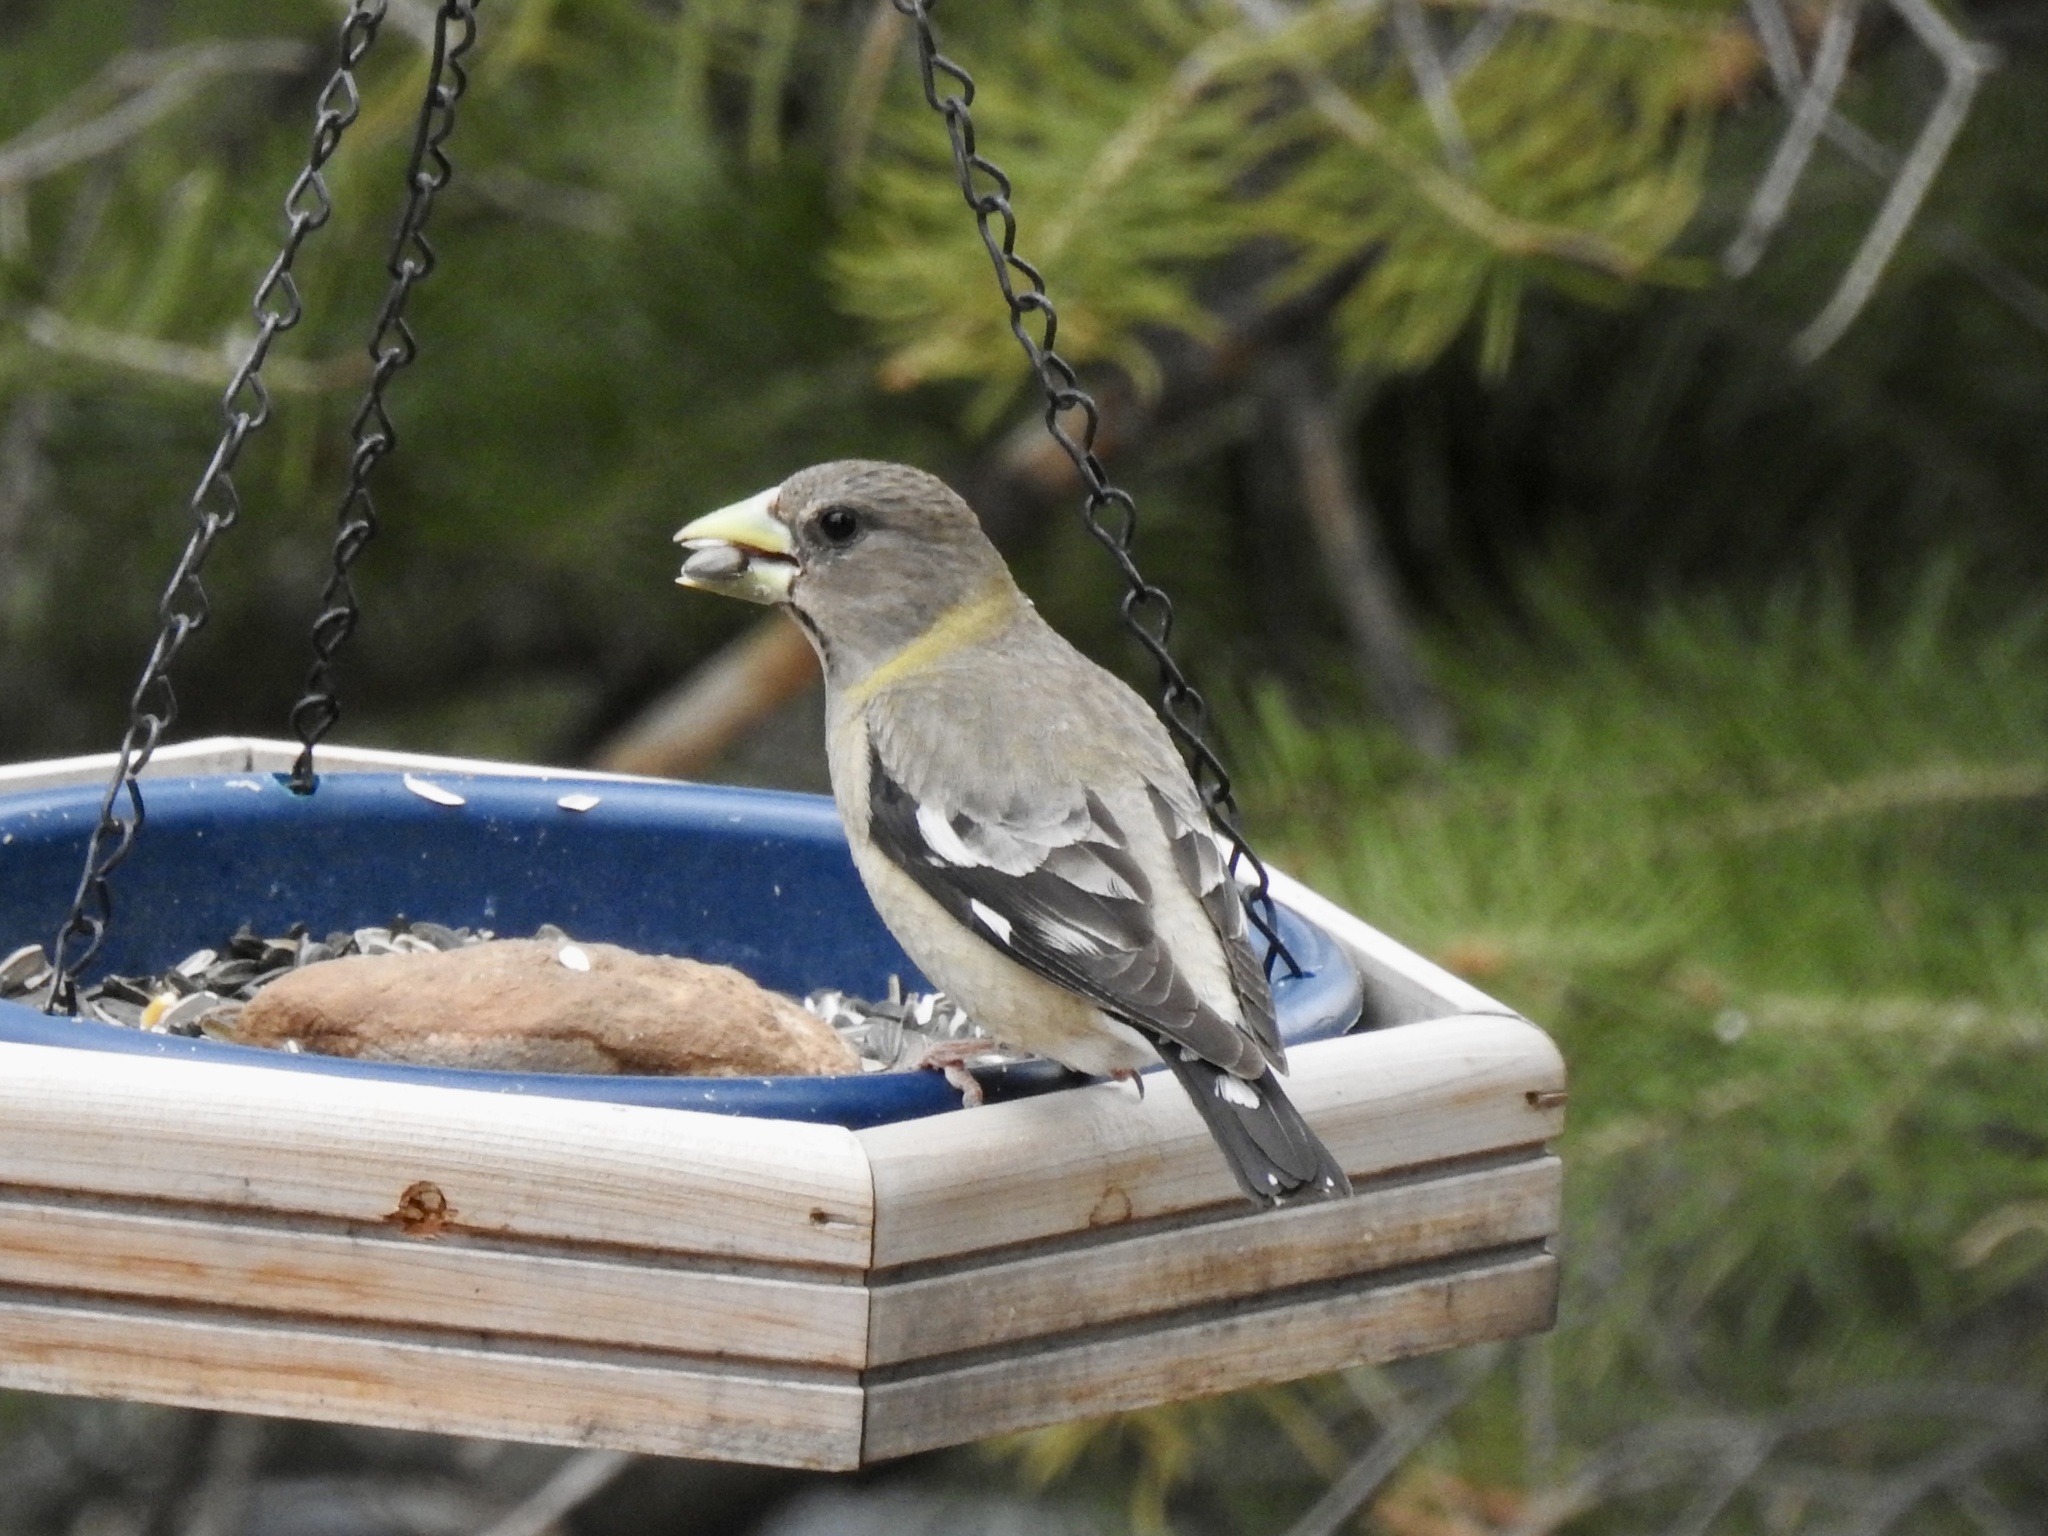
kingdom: Animalia
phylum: Chordata
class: Aves
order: Passeriformes
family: Fringillidae
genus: Hesperiphona
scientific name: Hesperiphona vespertina
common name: Evening grosbeak
